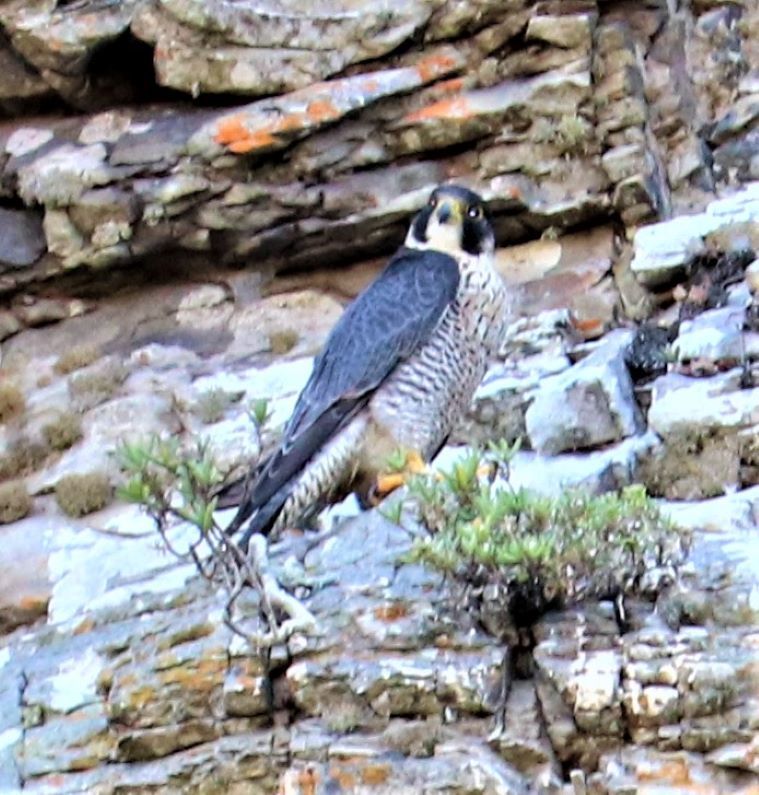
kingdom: Animalia
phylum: Chordata
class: Aves
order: Falconiformes
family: Falconidae
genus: Falco
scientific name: Falco peregrinus
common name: Peregrine falcon
